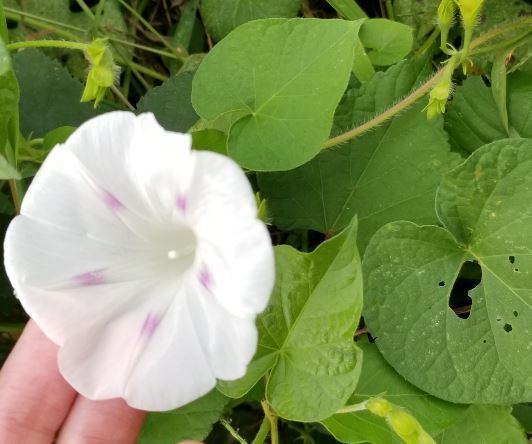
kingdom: Plantae
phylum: Tracheophyta
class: Magnoliopsida
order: Solanales
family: Convolvulaceae
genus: Ipomoea
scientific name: Ipomoea purpurea
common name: Common morning-glory
